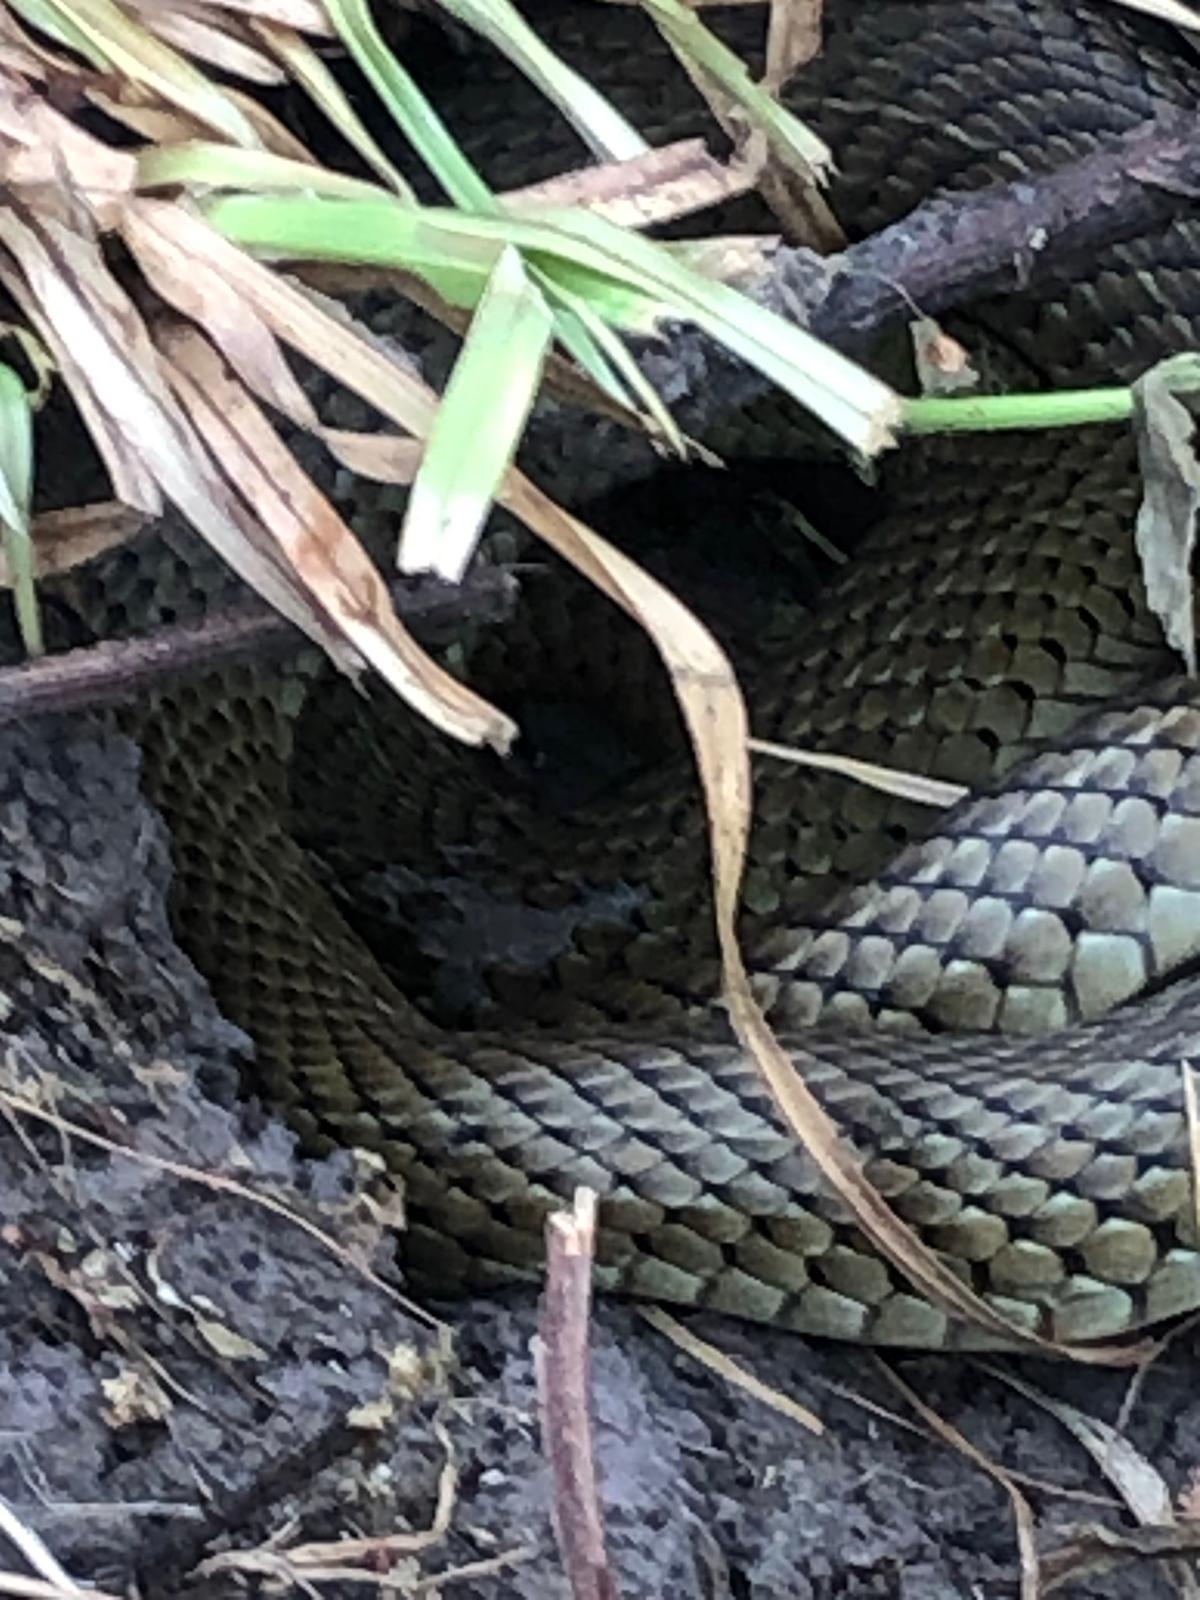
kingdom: Animalia
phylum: Chordata
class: Squamata
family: Colubridae
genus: Philodryas
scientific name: Philodryas patagoniensis
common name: Patagonia green racer
